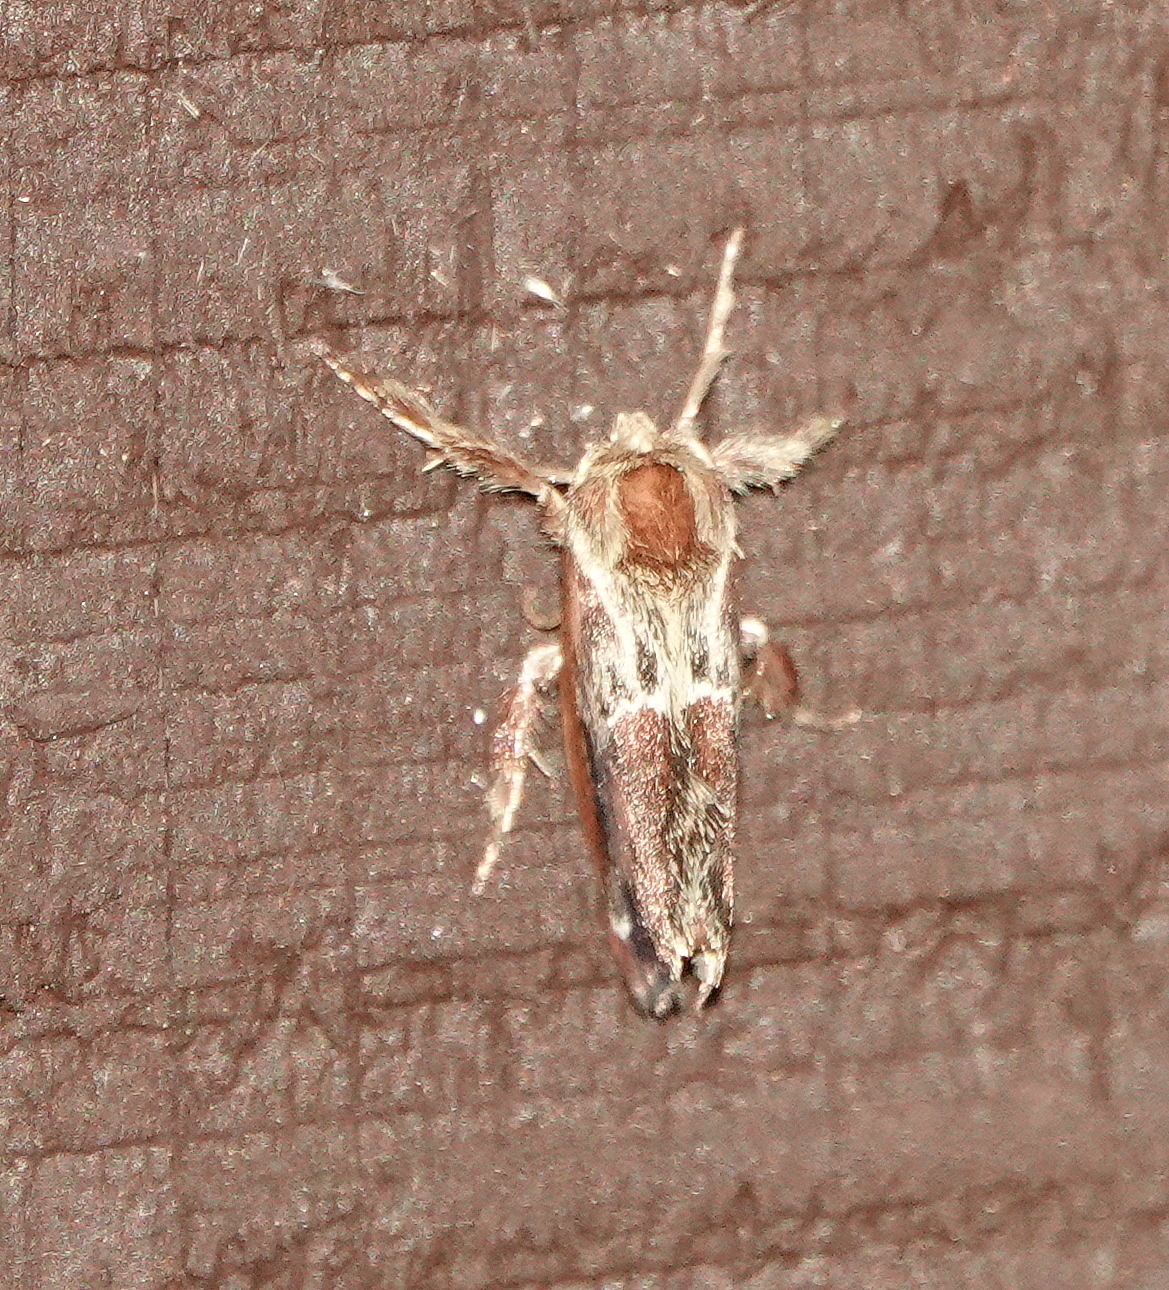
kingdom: Animalia
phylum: Arthropoda
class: Insecta
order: Lepidoptera
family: Limacodidae
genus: Adoneta
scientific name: Adoneta spinuloides
